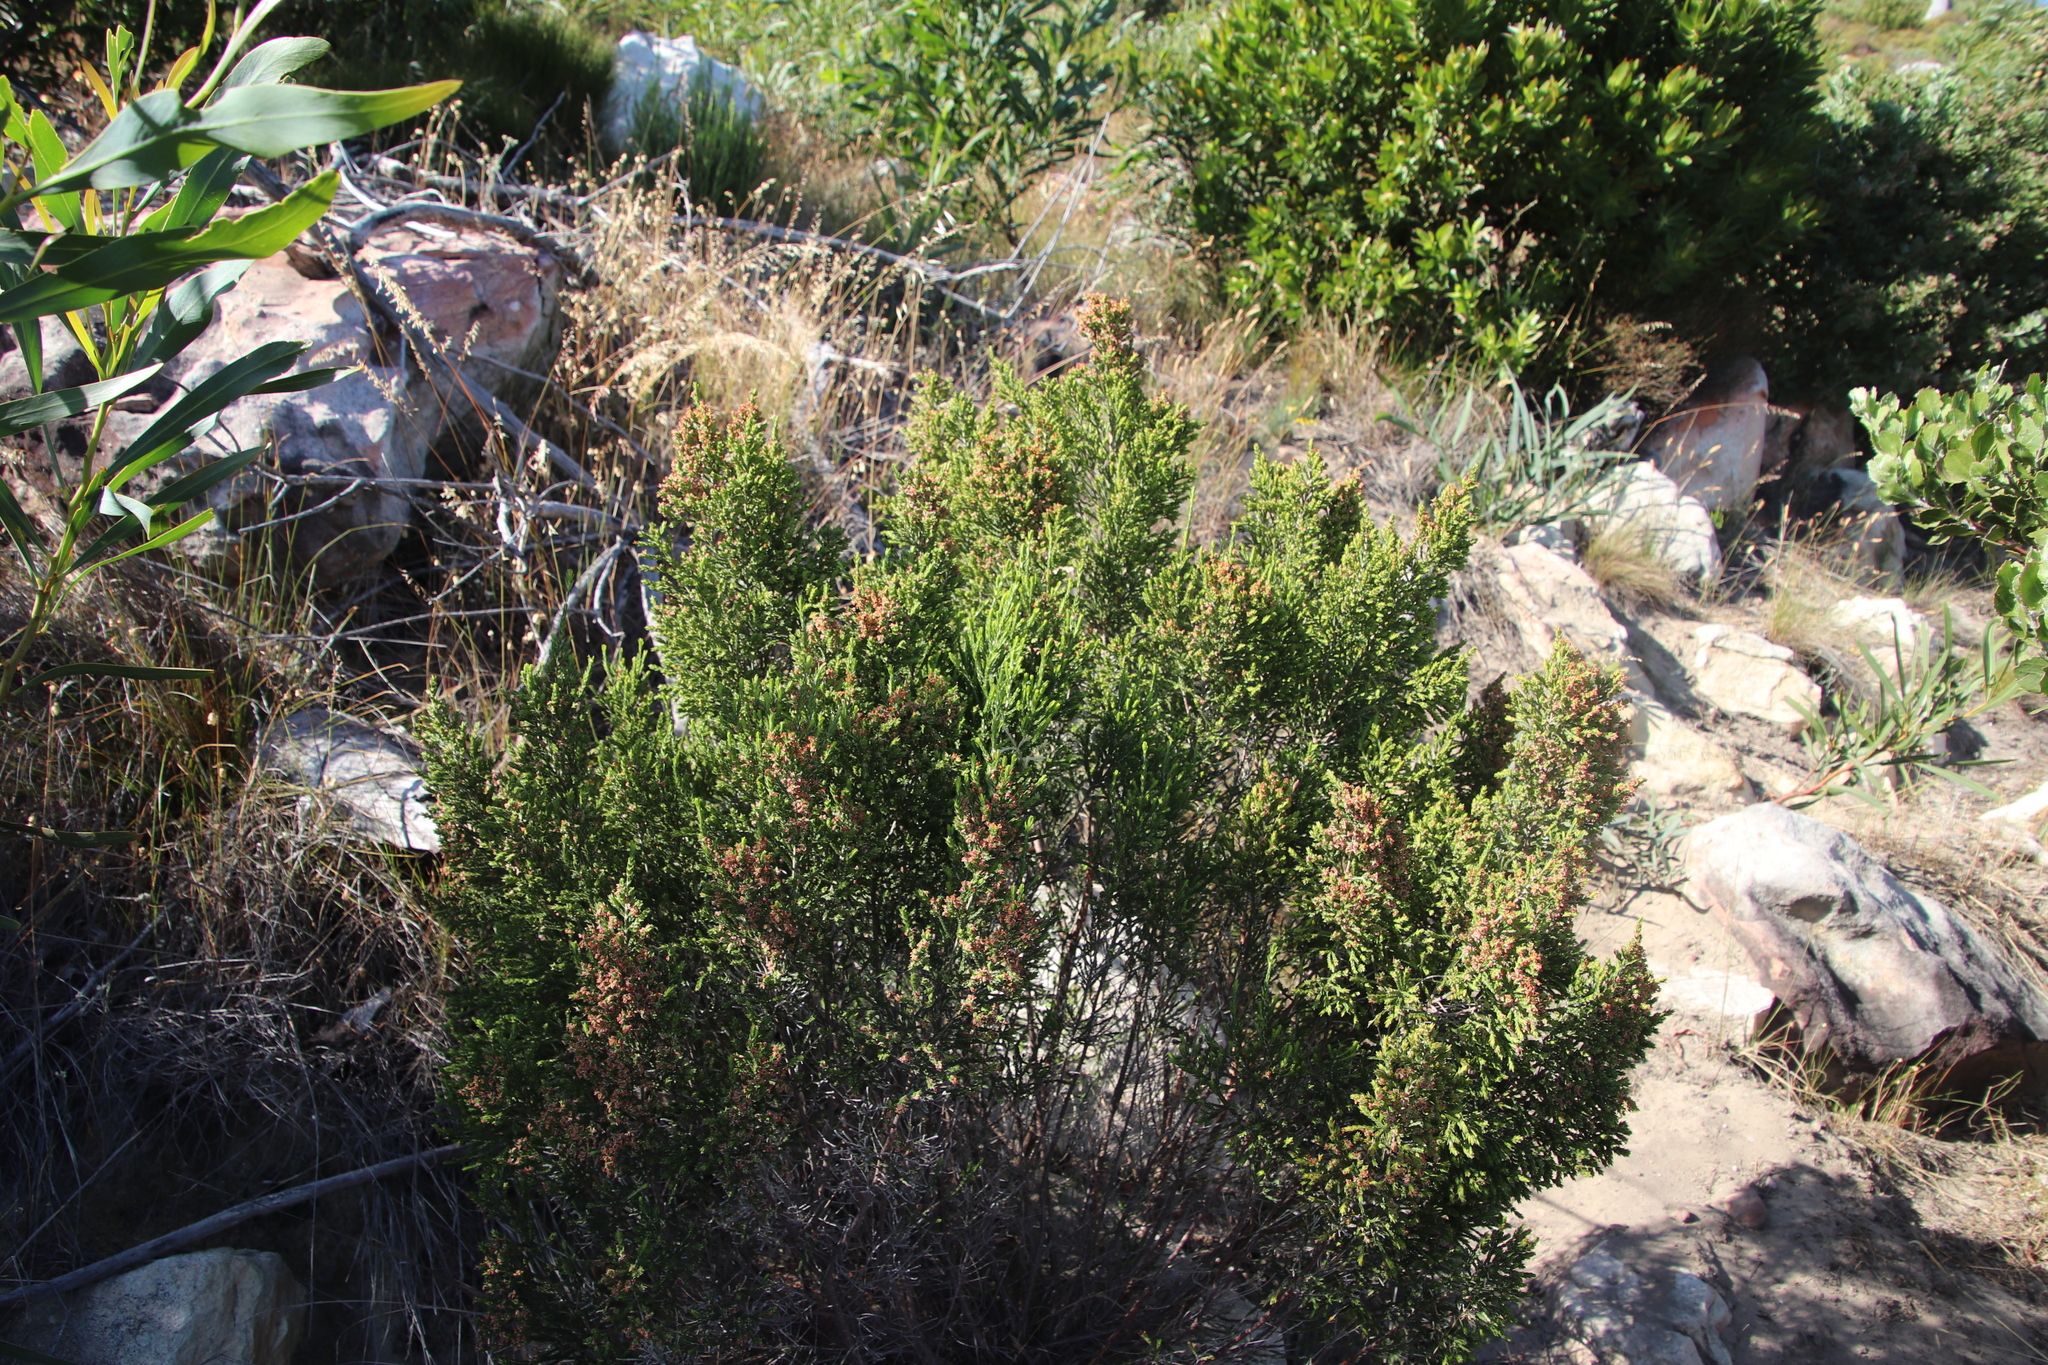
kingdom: Plantae
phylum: Tracheophyta
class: Magnoliopsida
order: Malvales
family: Thymelaeaceae
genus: Passerina
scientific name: Passerina corymbosa
